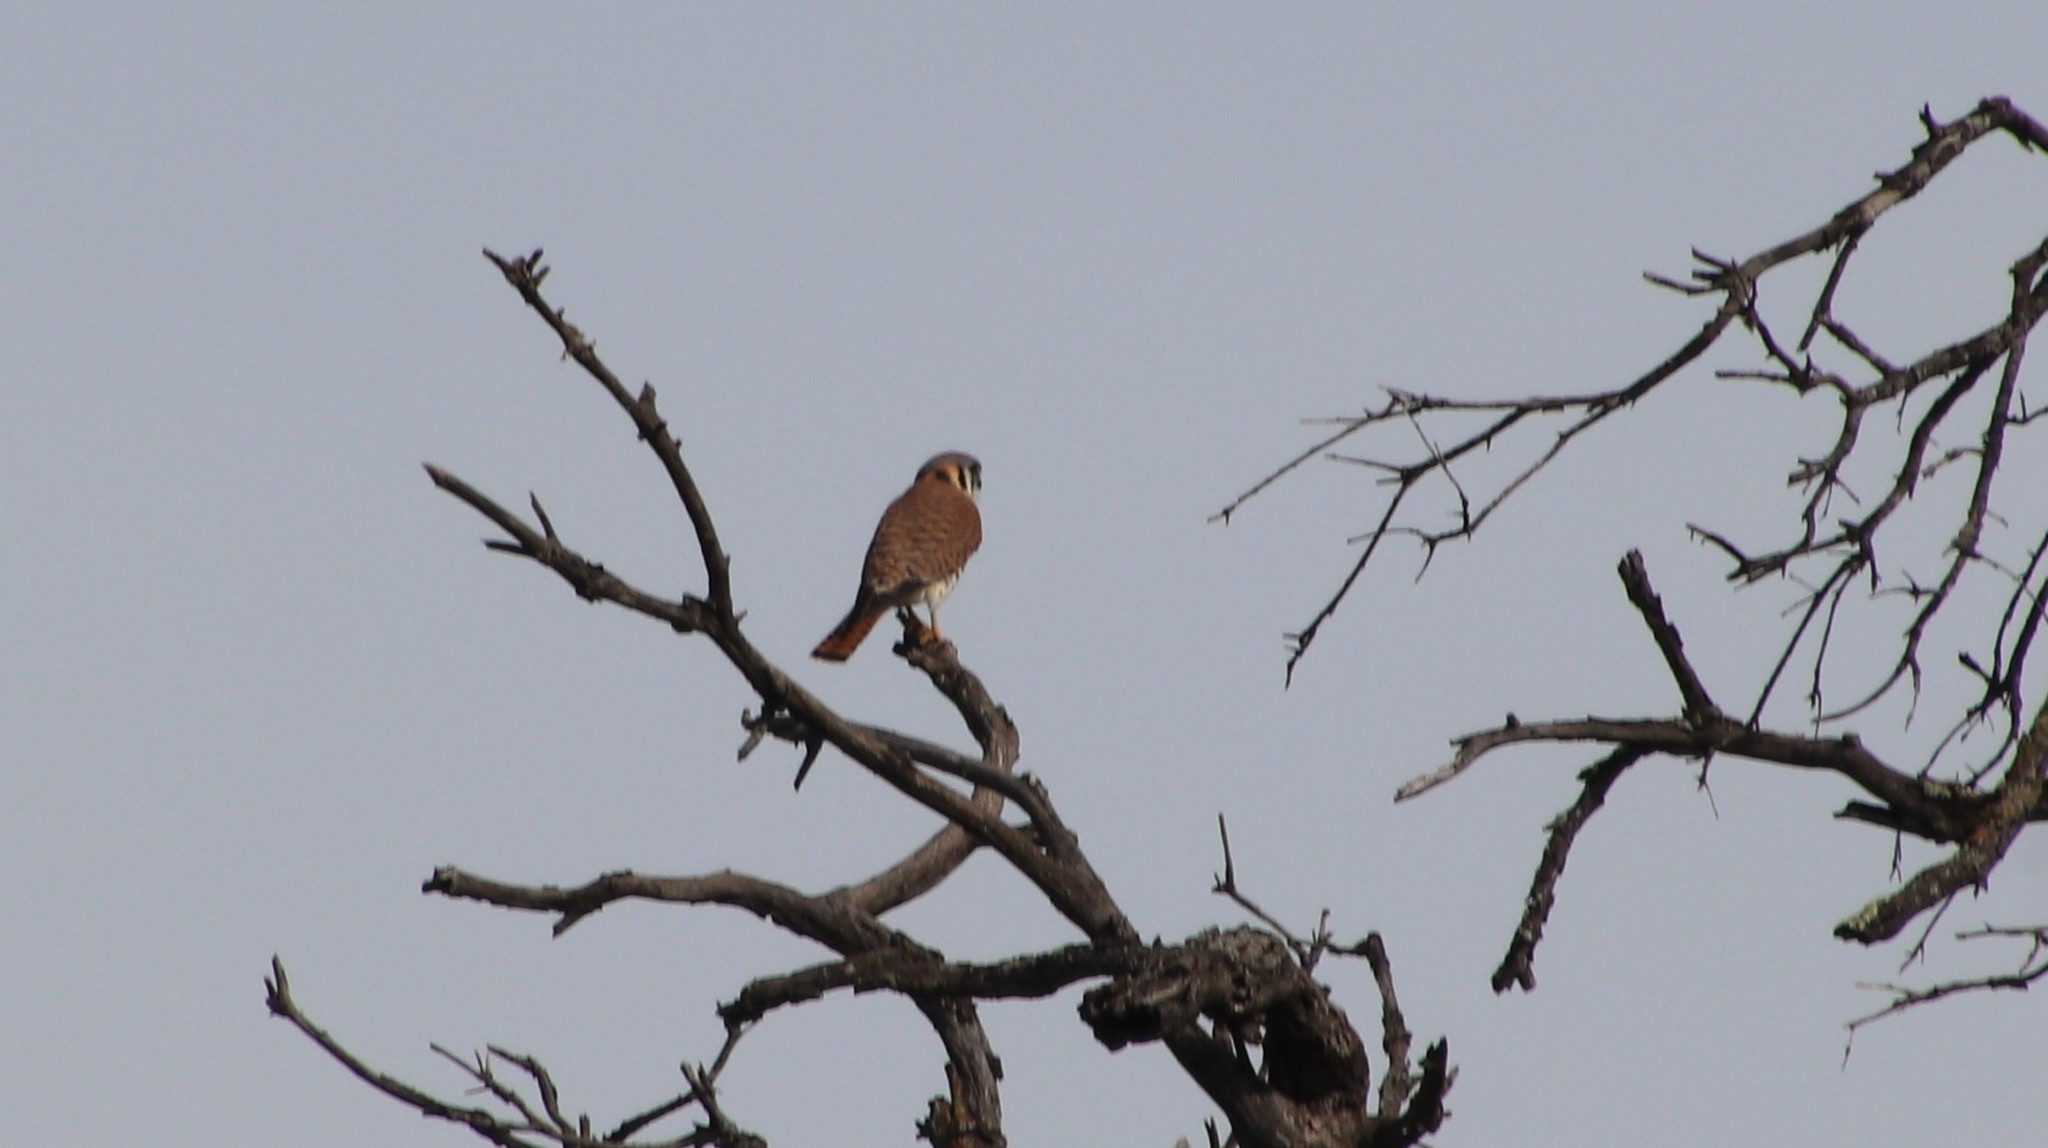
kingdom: Animalia
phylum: Chordata
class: Aves
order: Falconiformes
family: Falconidae
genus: Falco
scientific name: Falco sparverius
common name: American kestrel
